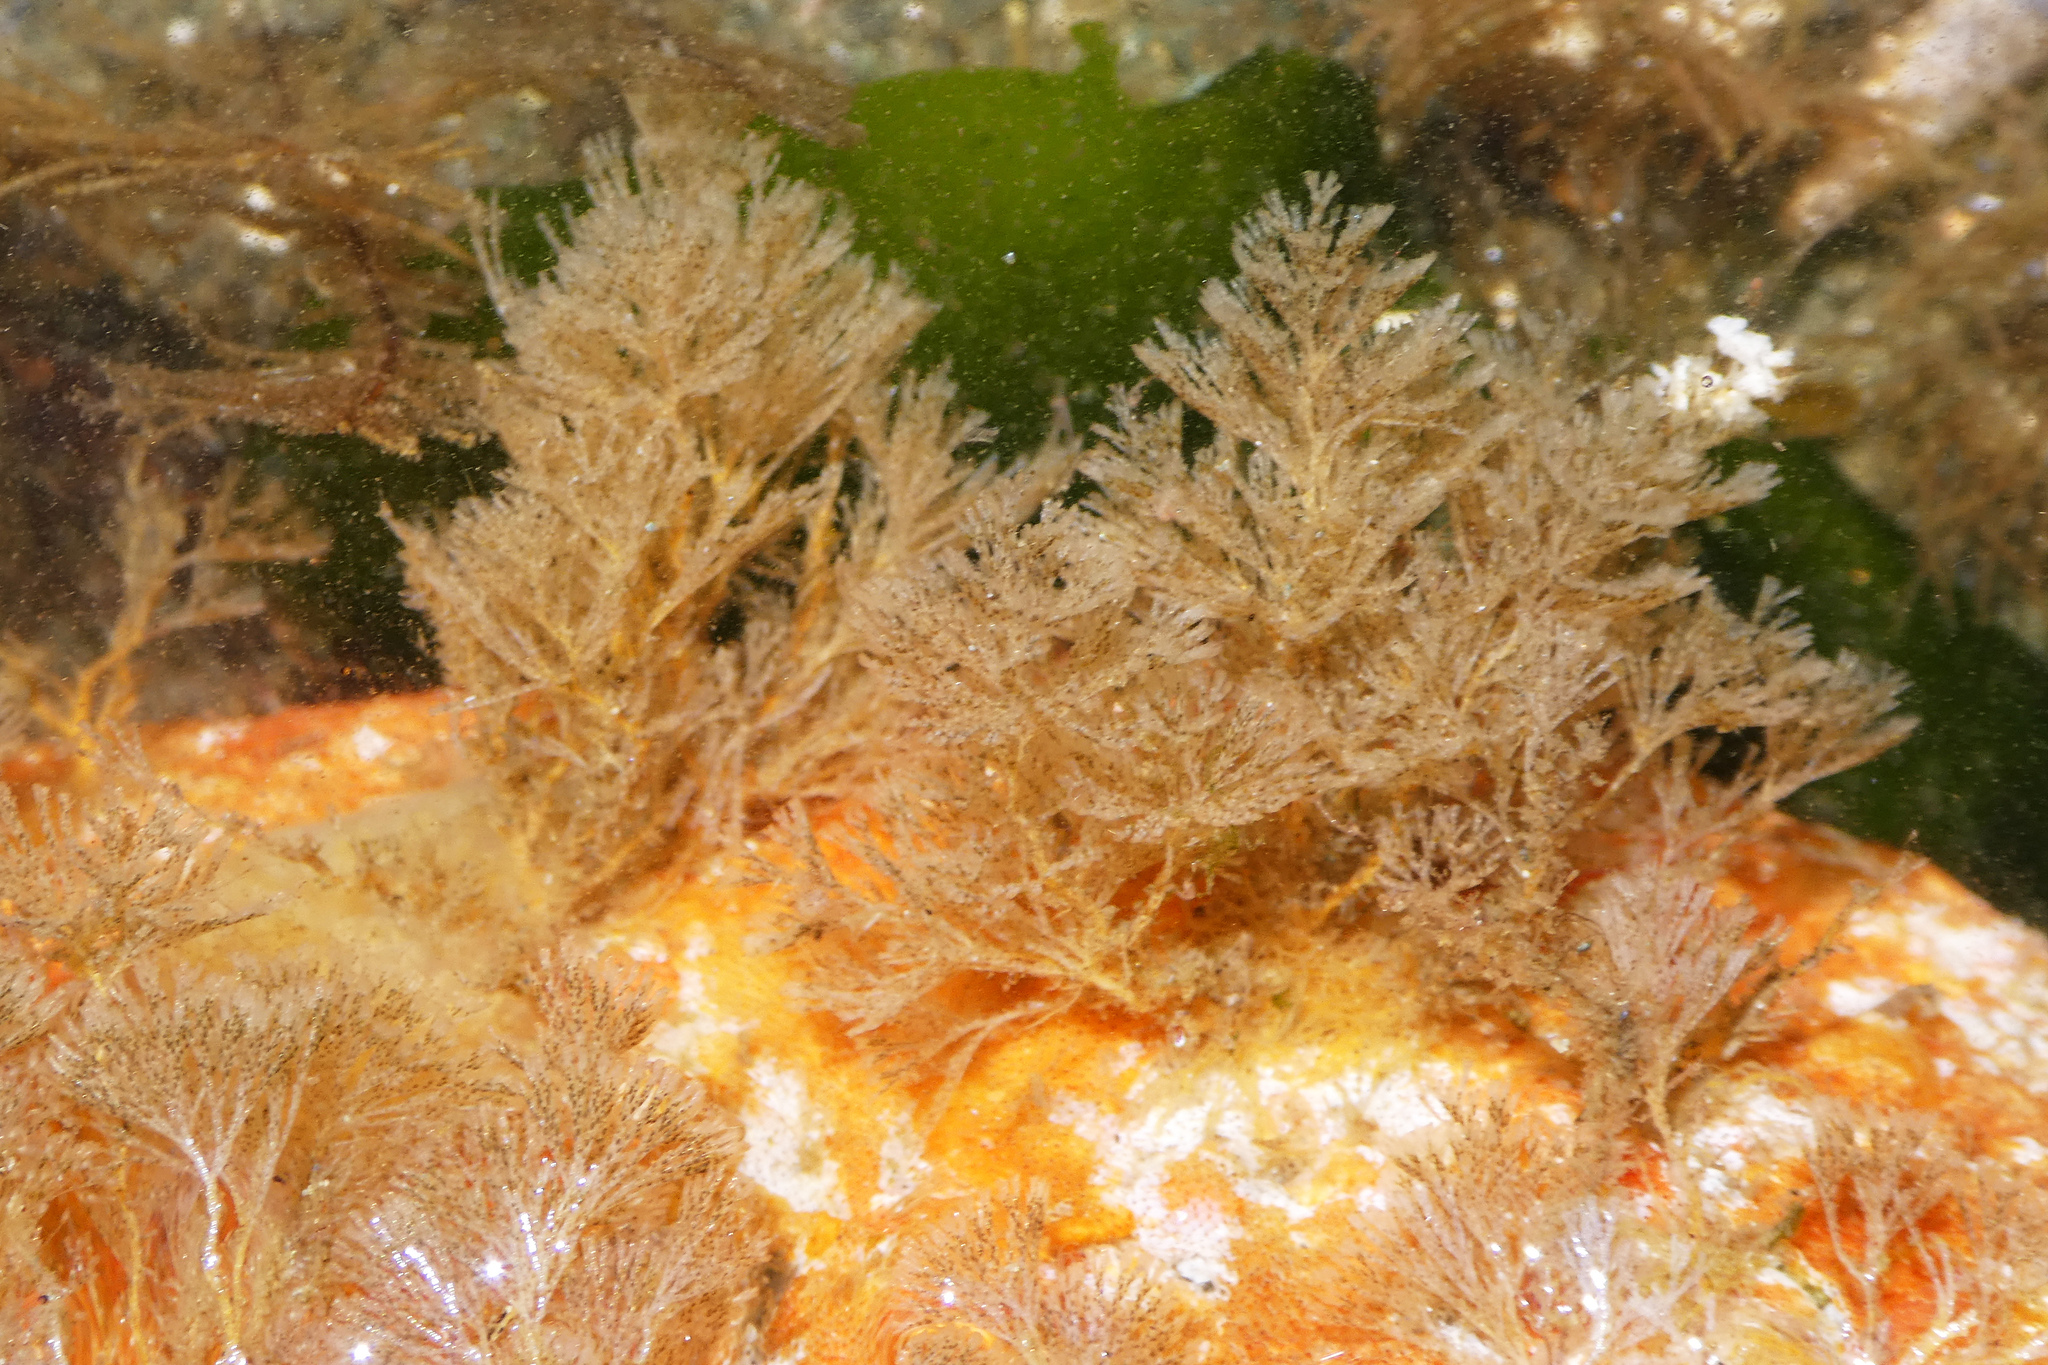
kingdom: Animalia
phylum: Bryozoa
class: Gymnolaemata
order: Cheilostomatida
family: Bugulidae
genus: Bugulina
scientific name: Bugulina californica
